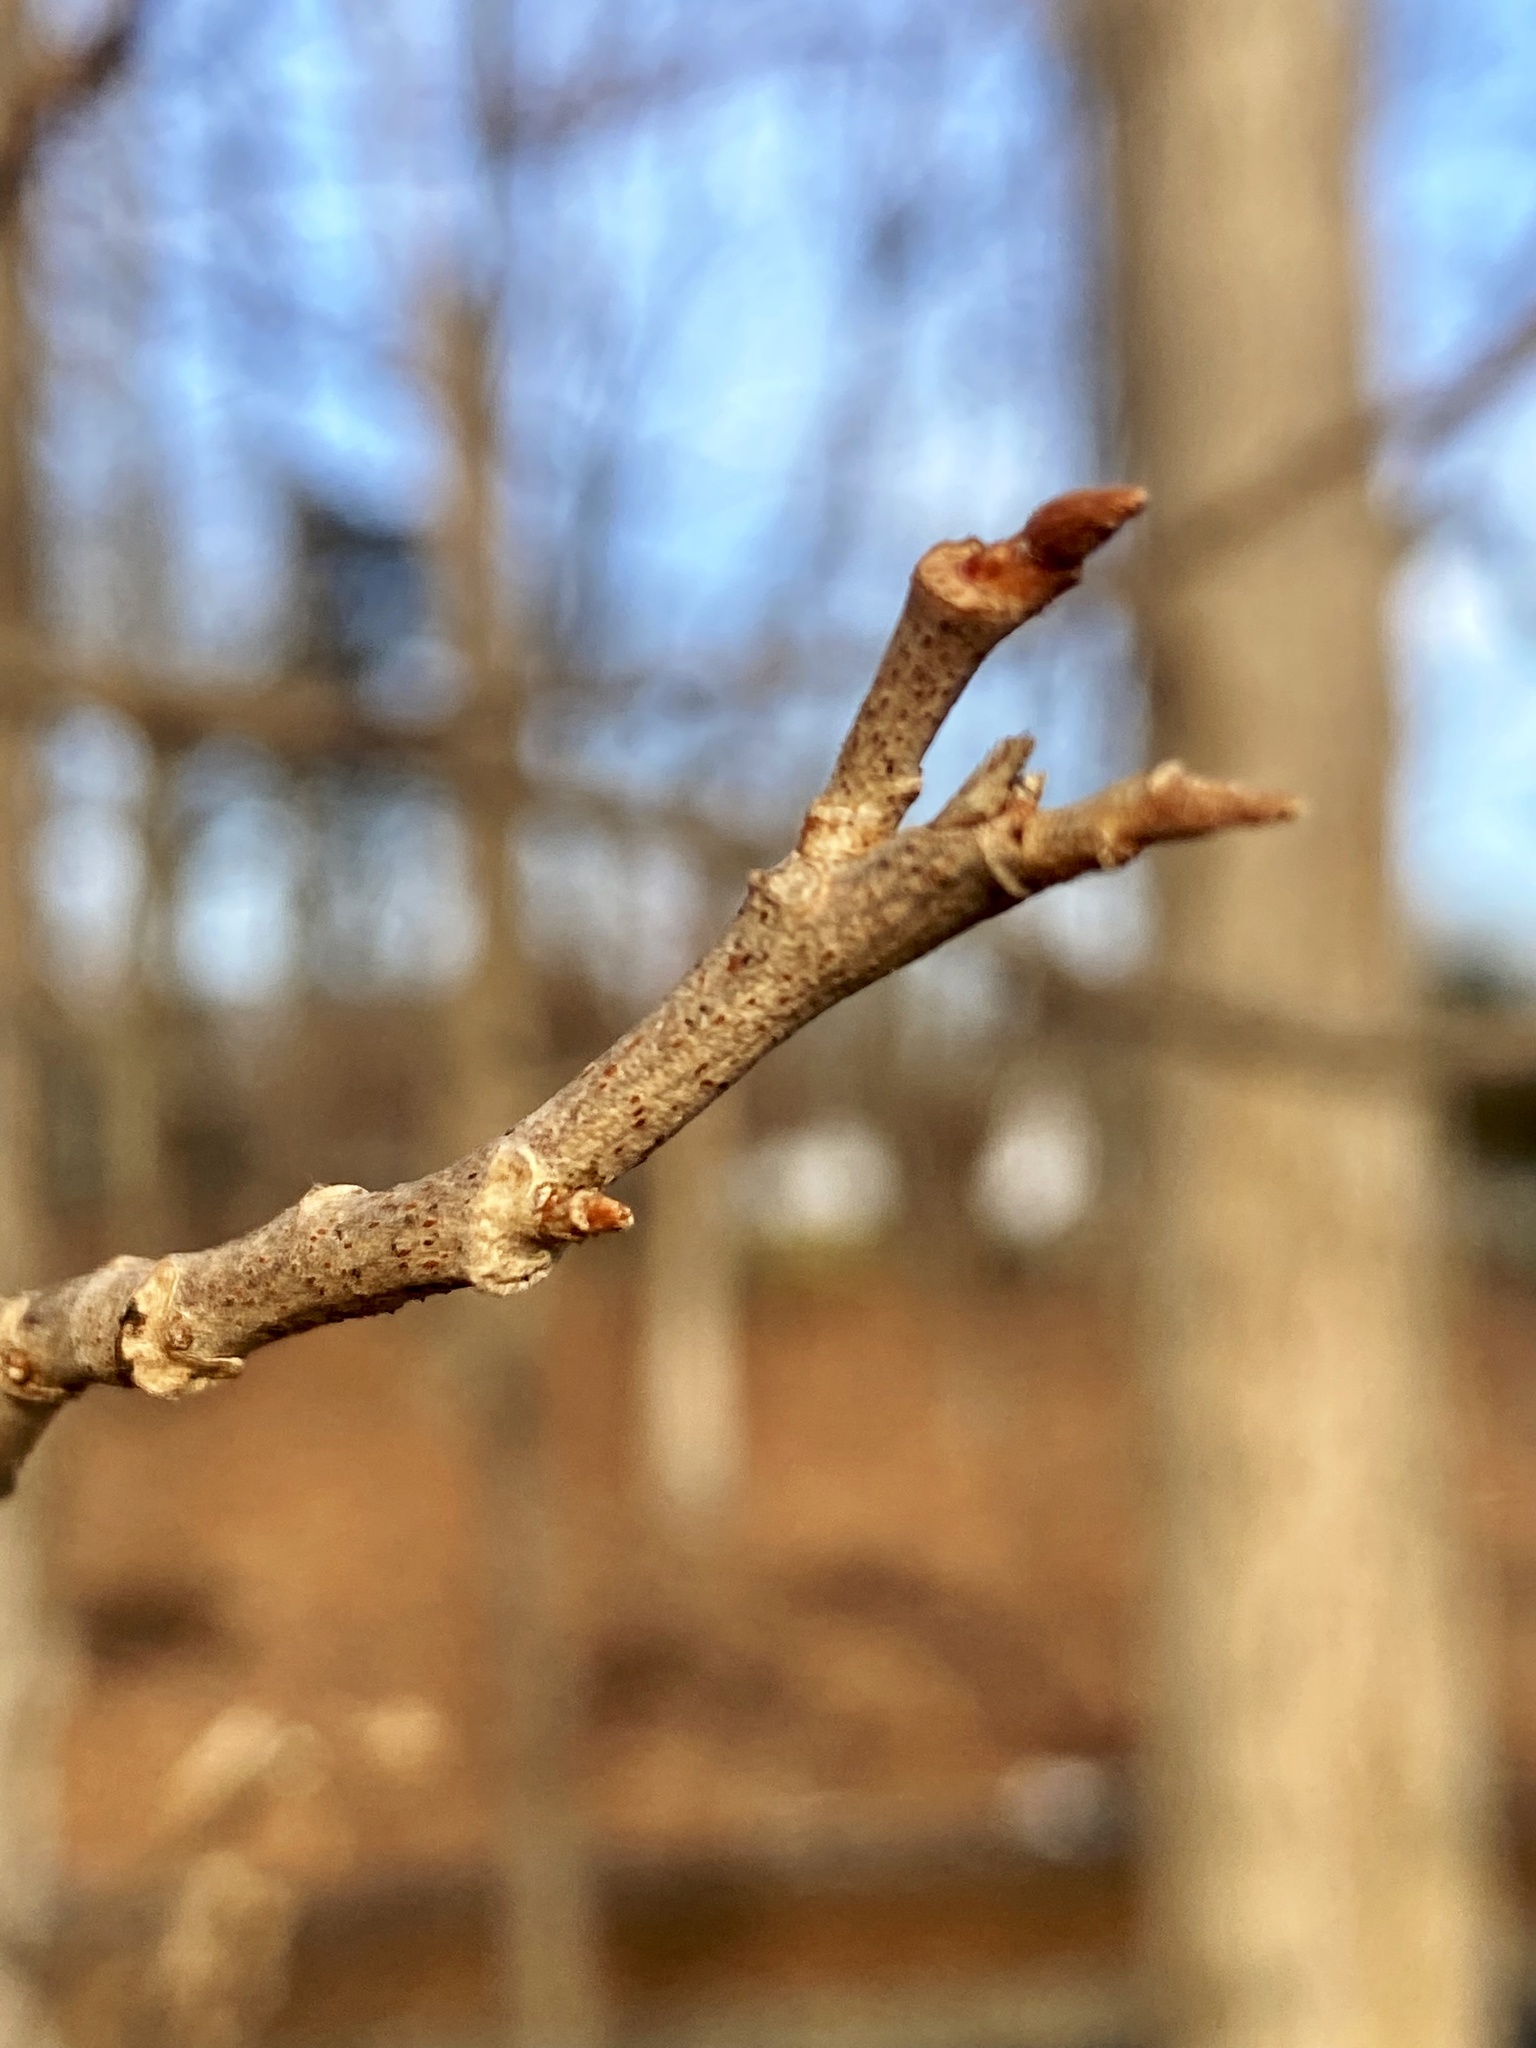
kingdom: Plantae
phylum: Tracheophyta
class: Magnoliopsida
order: Sapindales
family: Anacardiaceae
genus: Toxicodendron
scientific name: Toxicodendron radicans
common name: Poison ivy
